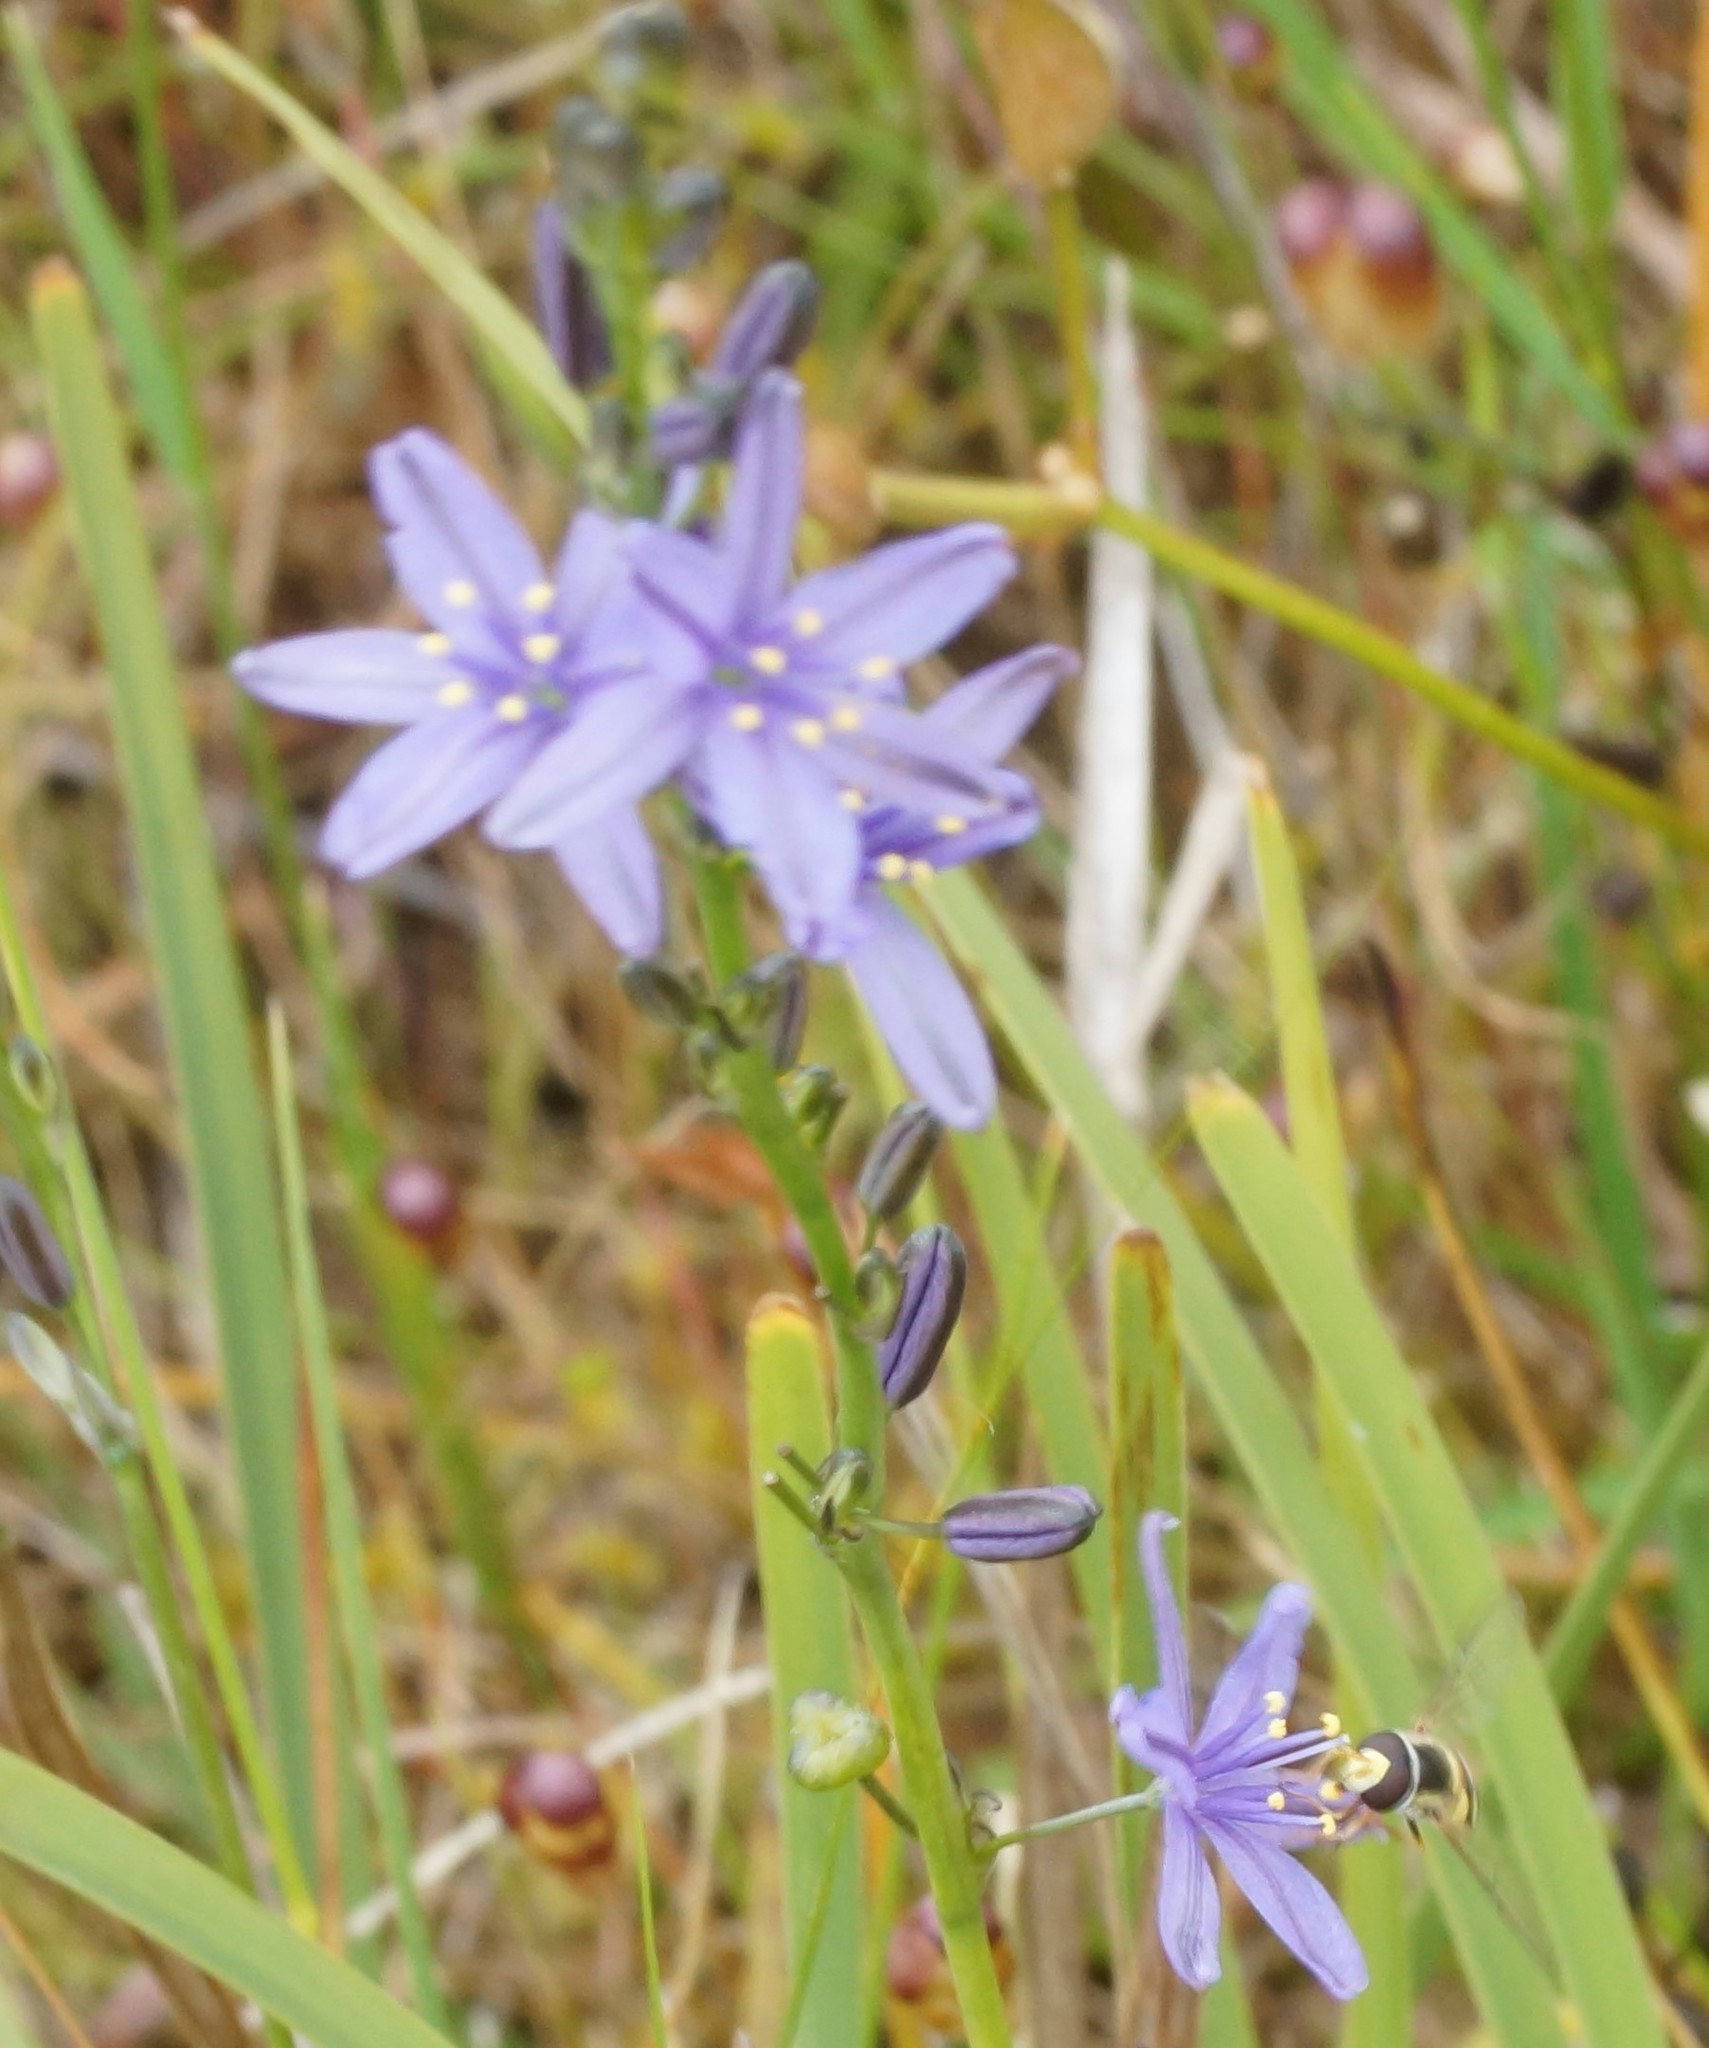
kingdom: Plantae
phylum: Tracheophyta
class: Liliopsida
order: Asparagales
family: Asphodelaceae
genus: Caesia
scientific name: Caesia calliantha
